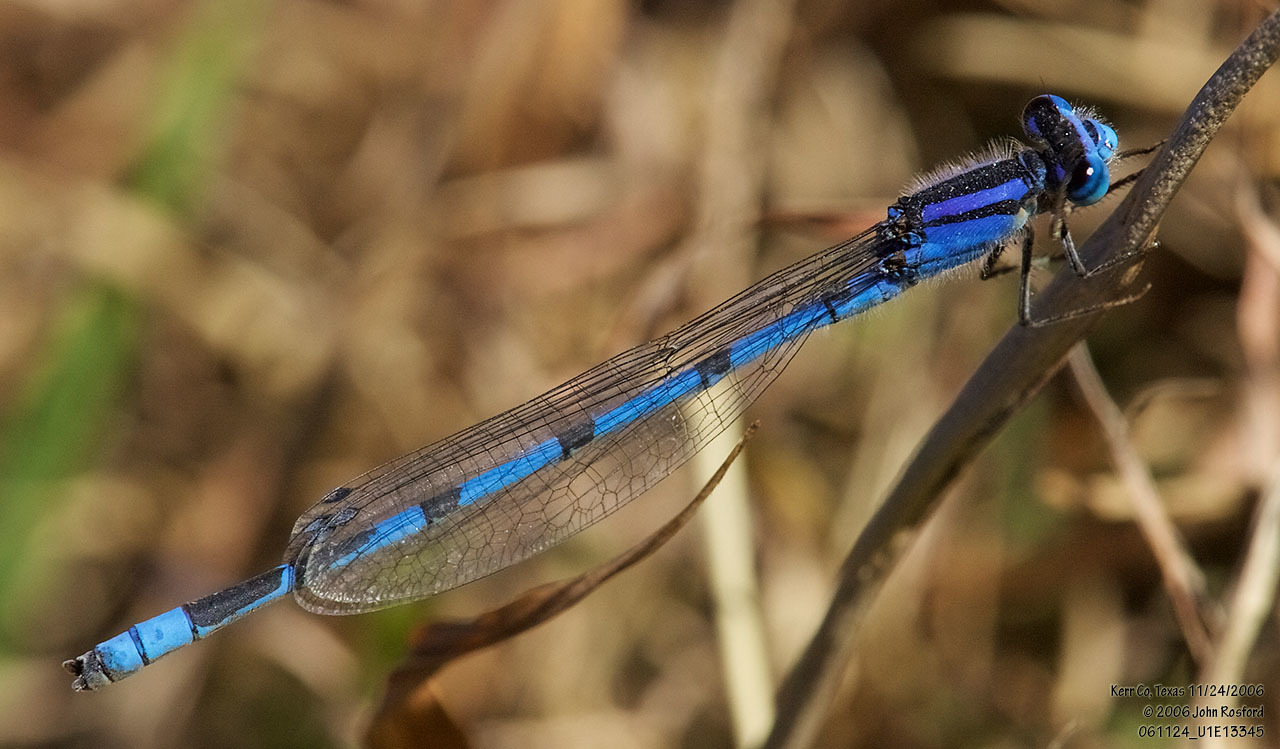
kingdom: Animalia
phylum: Arthropoda
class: Insecta
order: Odonata
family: Coenagrionidae
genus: Enallagma
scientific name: Enallagma civile
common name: Damselfly
